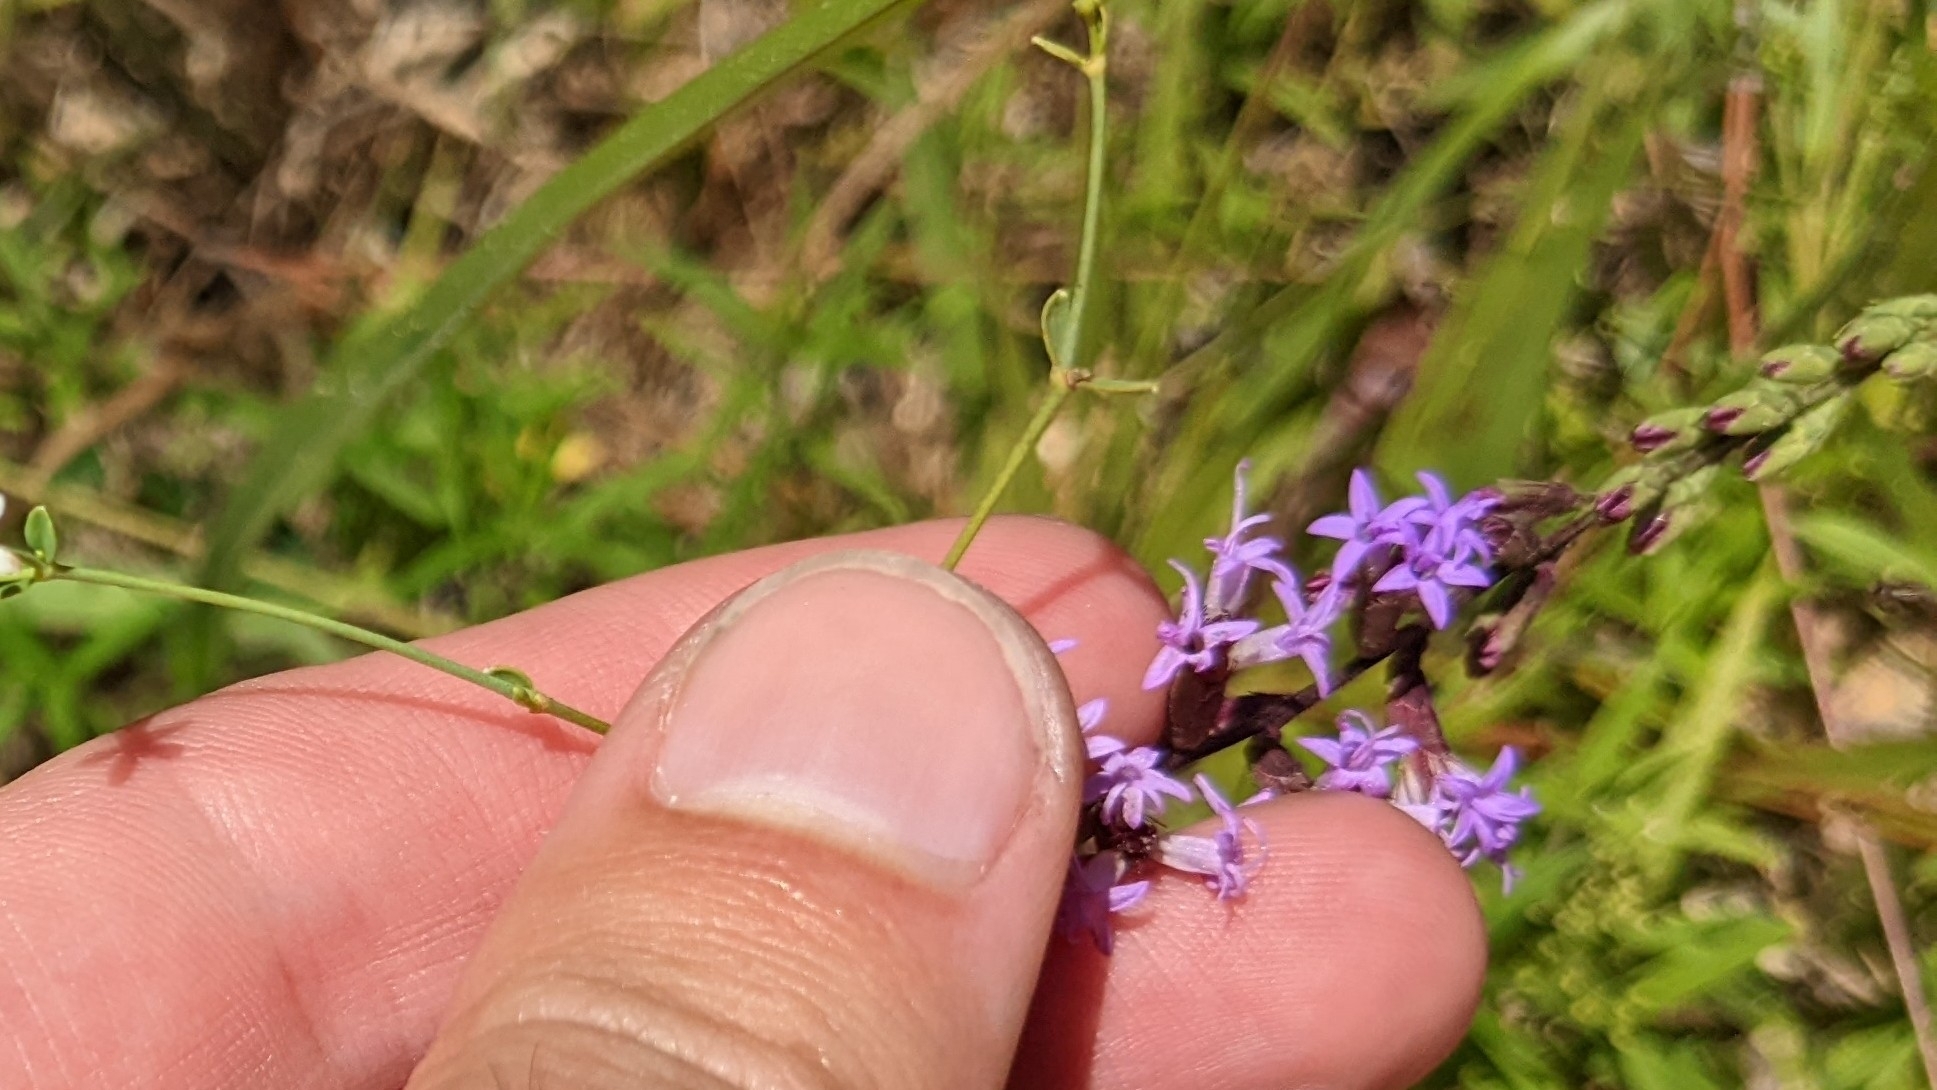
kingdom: Plantae
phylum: Tracheophyta
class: Magnoliopsida
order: Asterales
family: Asteraceae
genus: Liatris
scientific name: Liatris acidota
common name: Gulf coast gayfeather
